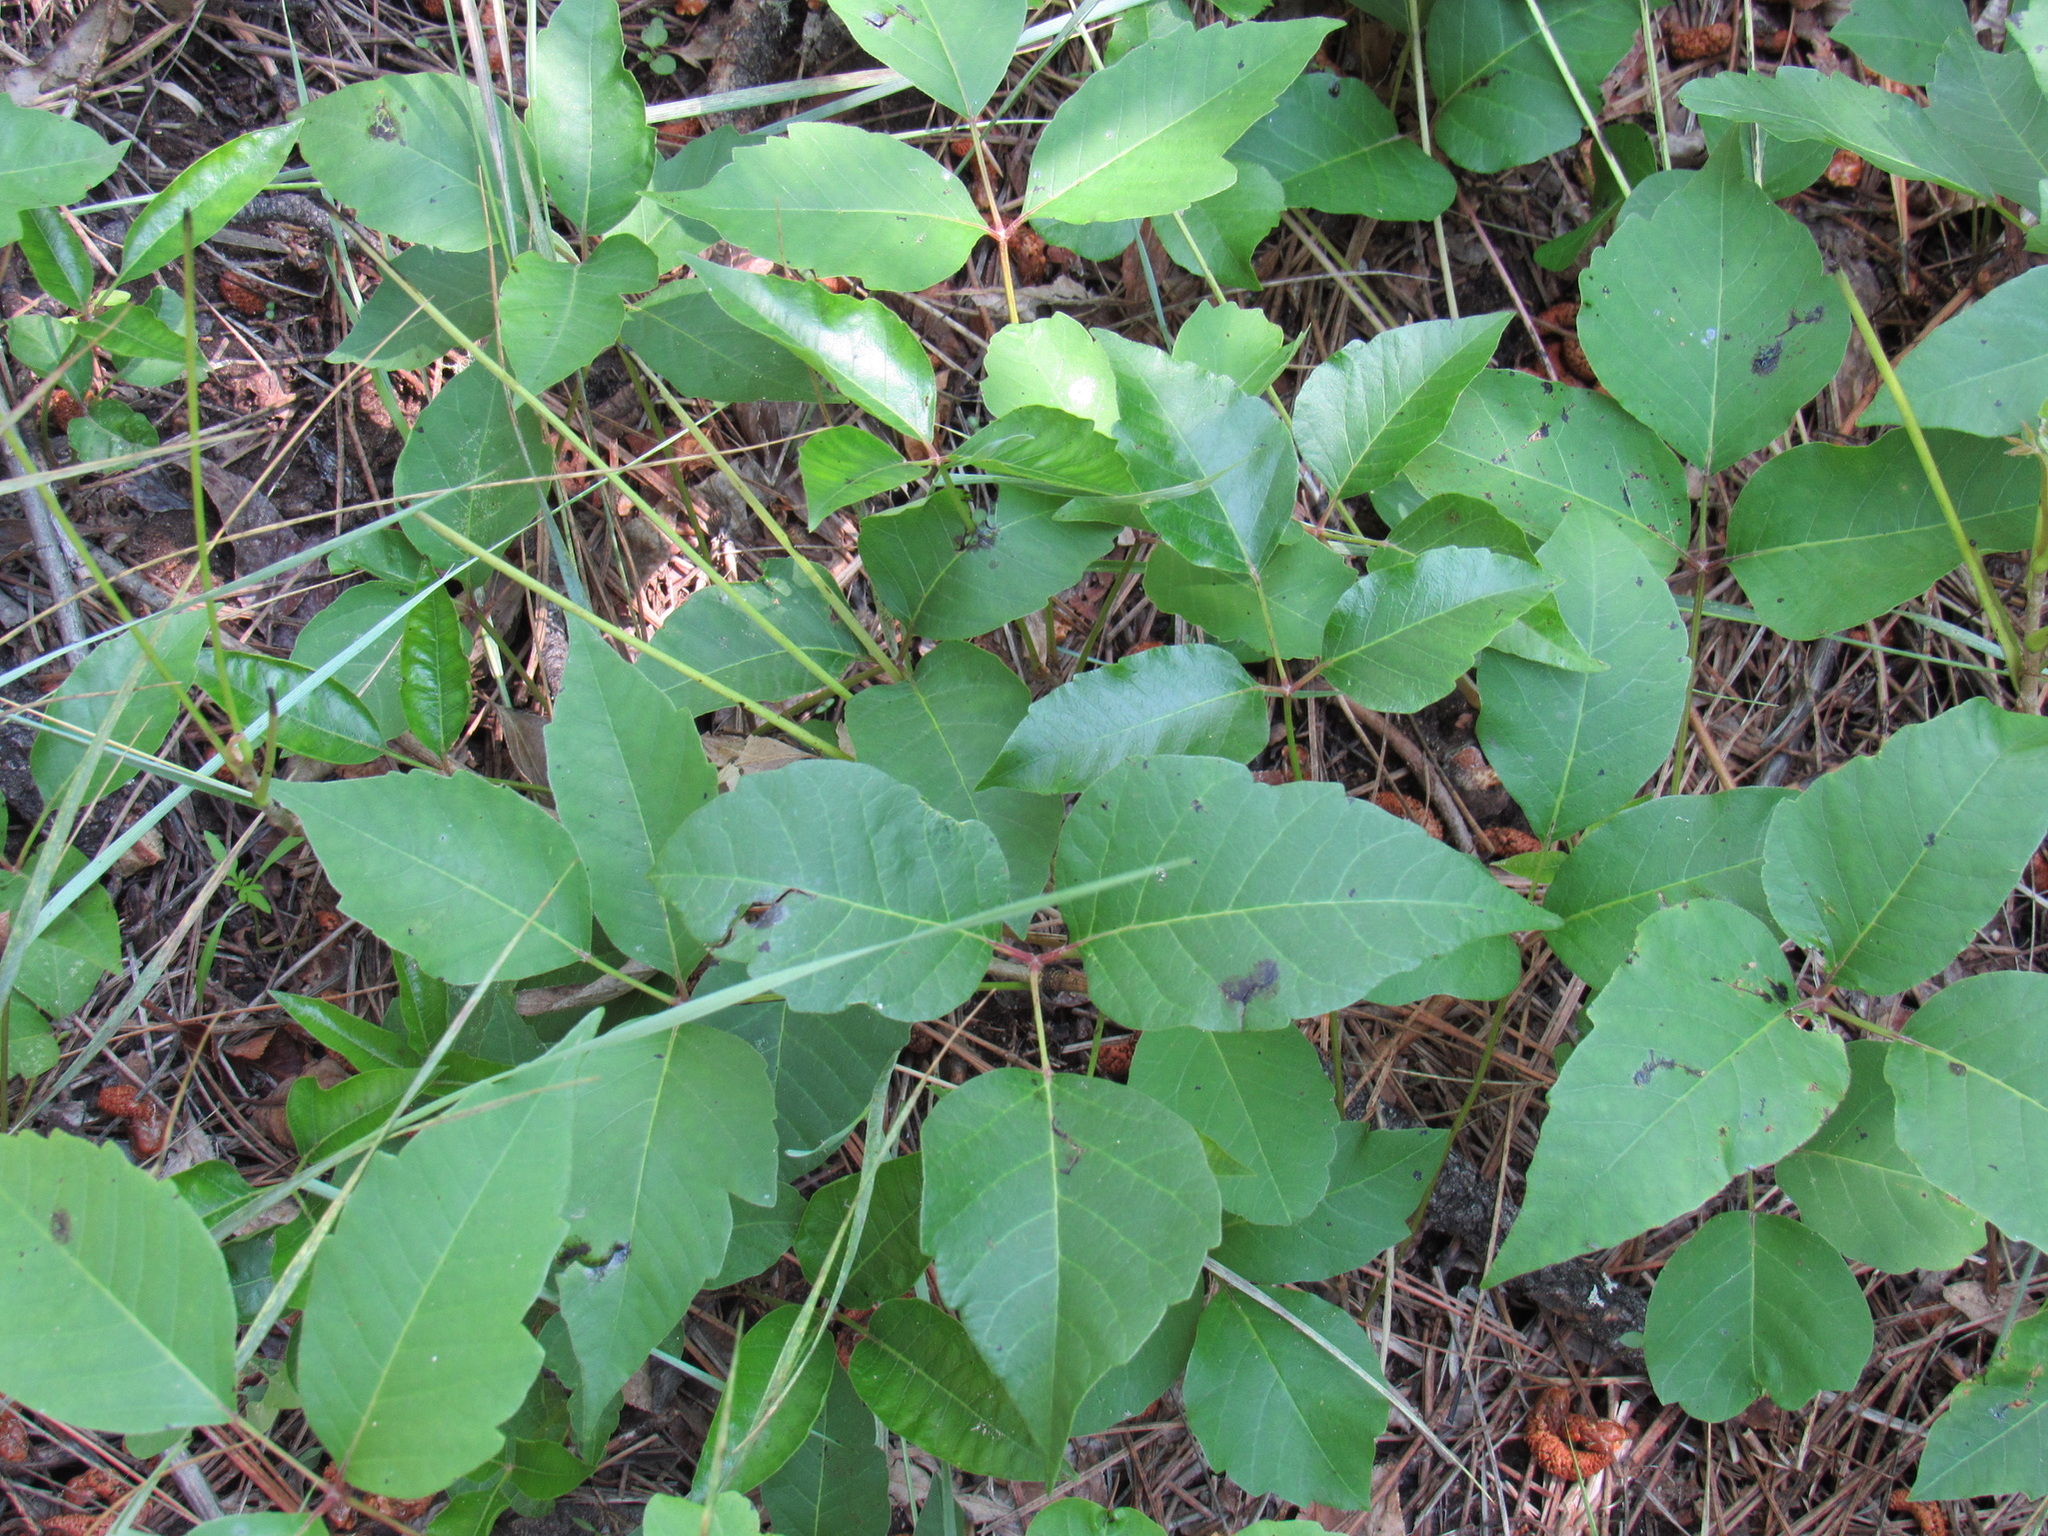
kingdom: Plantae
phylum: Tracheophyta
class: Magnoliopsida
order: Sapindales
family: Anacardiaceae
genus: Toxicodendron
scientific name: Toxicodendron rydbergii
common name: Rydberg's poison-ivy
